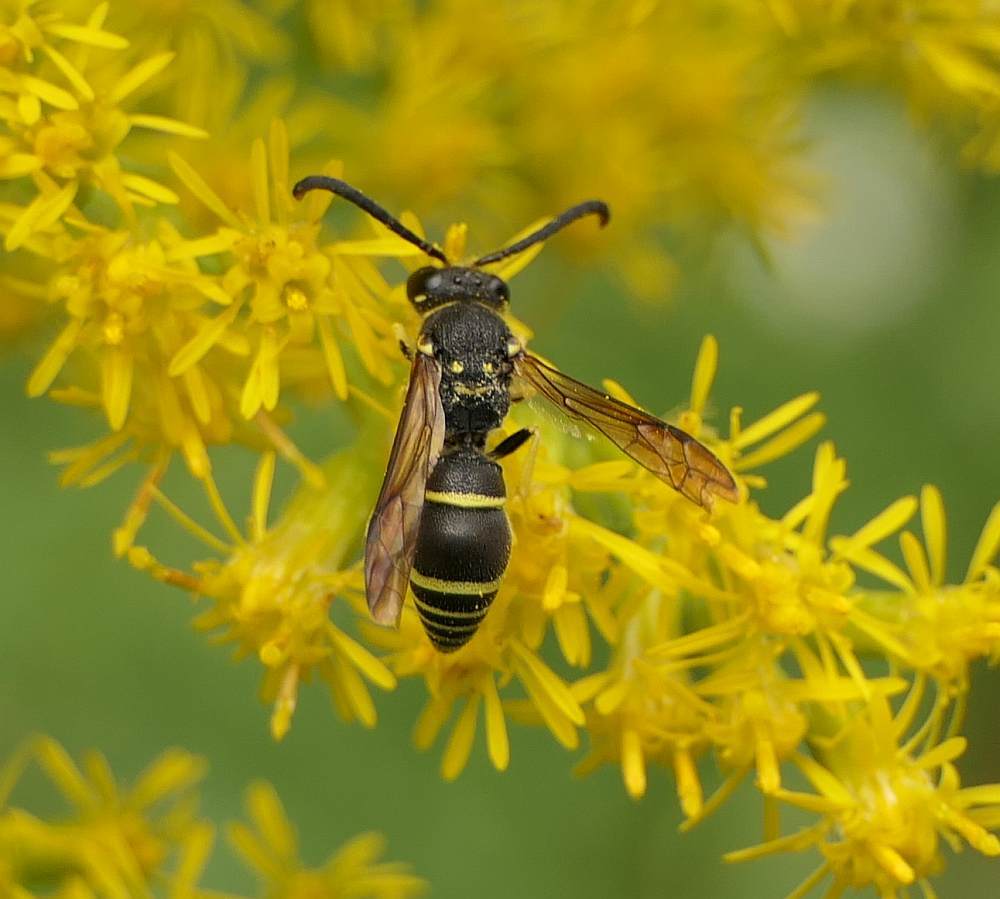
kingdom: Animalia
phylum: Arthropoda
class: Insecta
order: Hymenoptera
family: Vespidae
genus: Ancistrocerus
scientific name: Ancistrocerus adiabatus
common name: Bramble mason wasp
